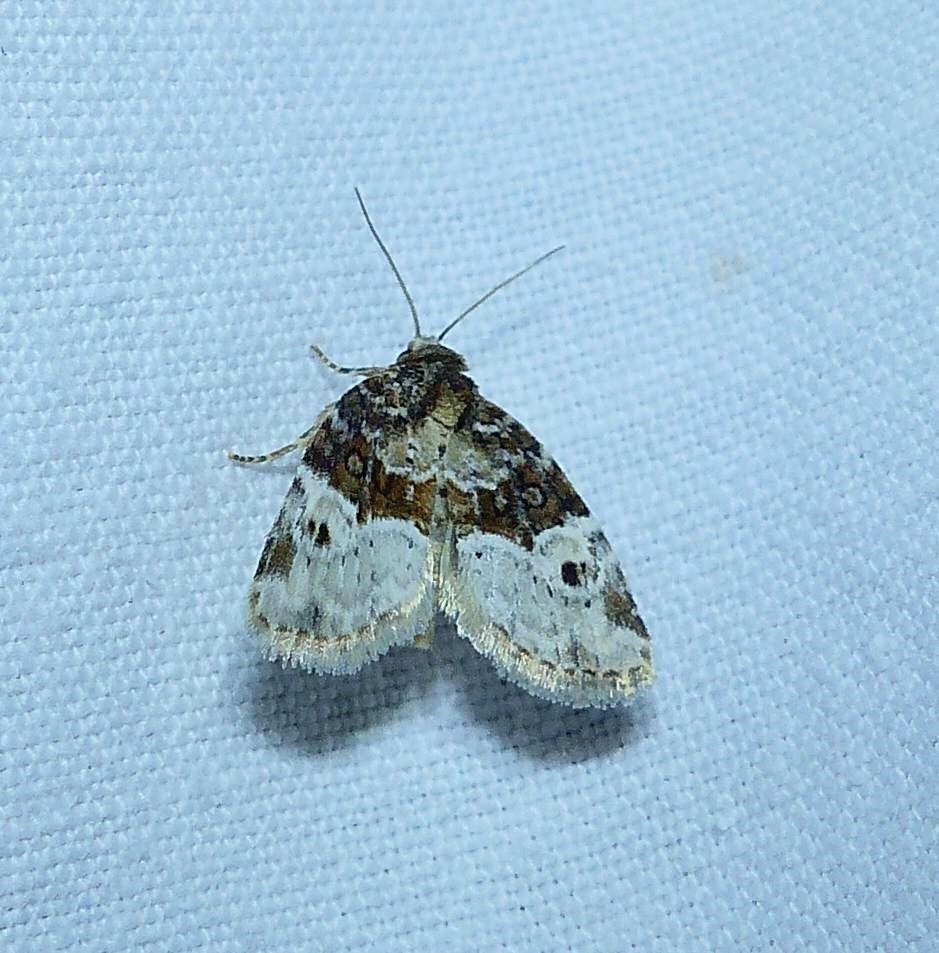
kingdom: Animalia
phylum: Arthropoda
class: Insecta
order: Lepidoptera
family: Noctuidae
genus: Neoligia
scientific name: Neoligia crytora
